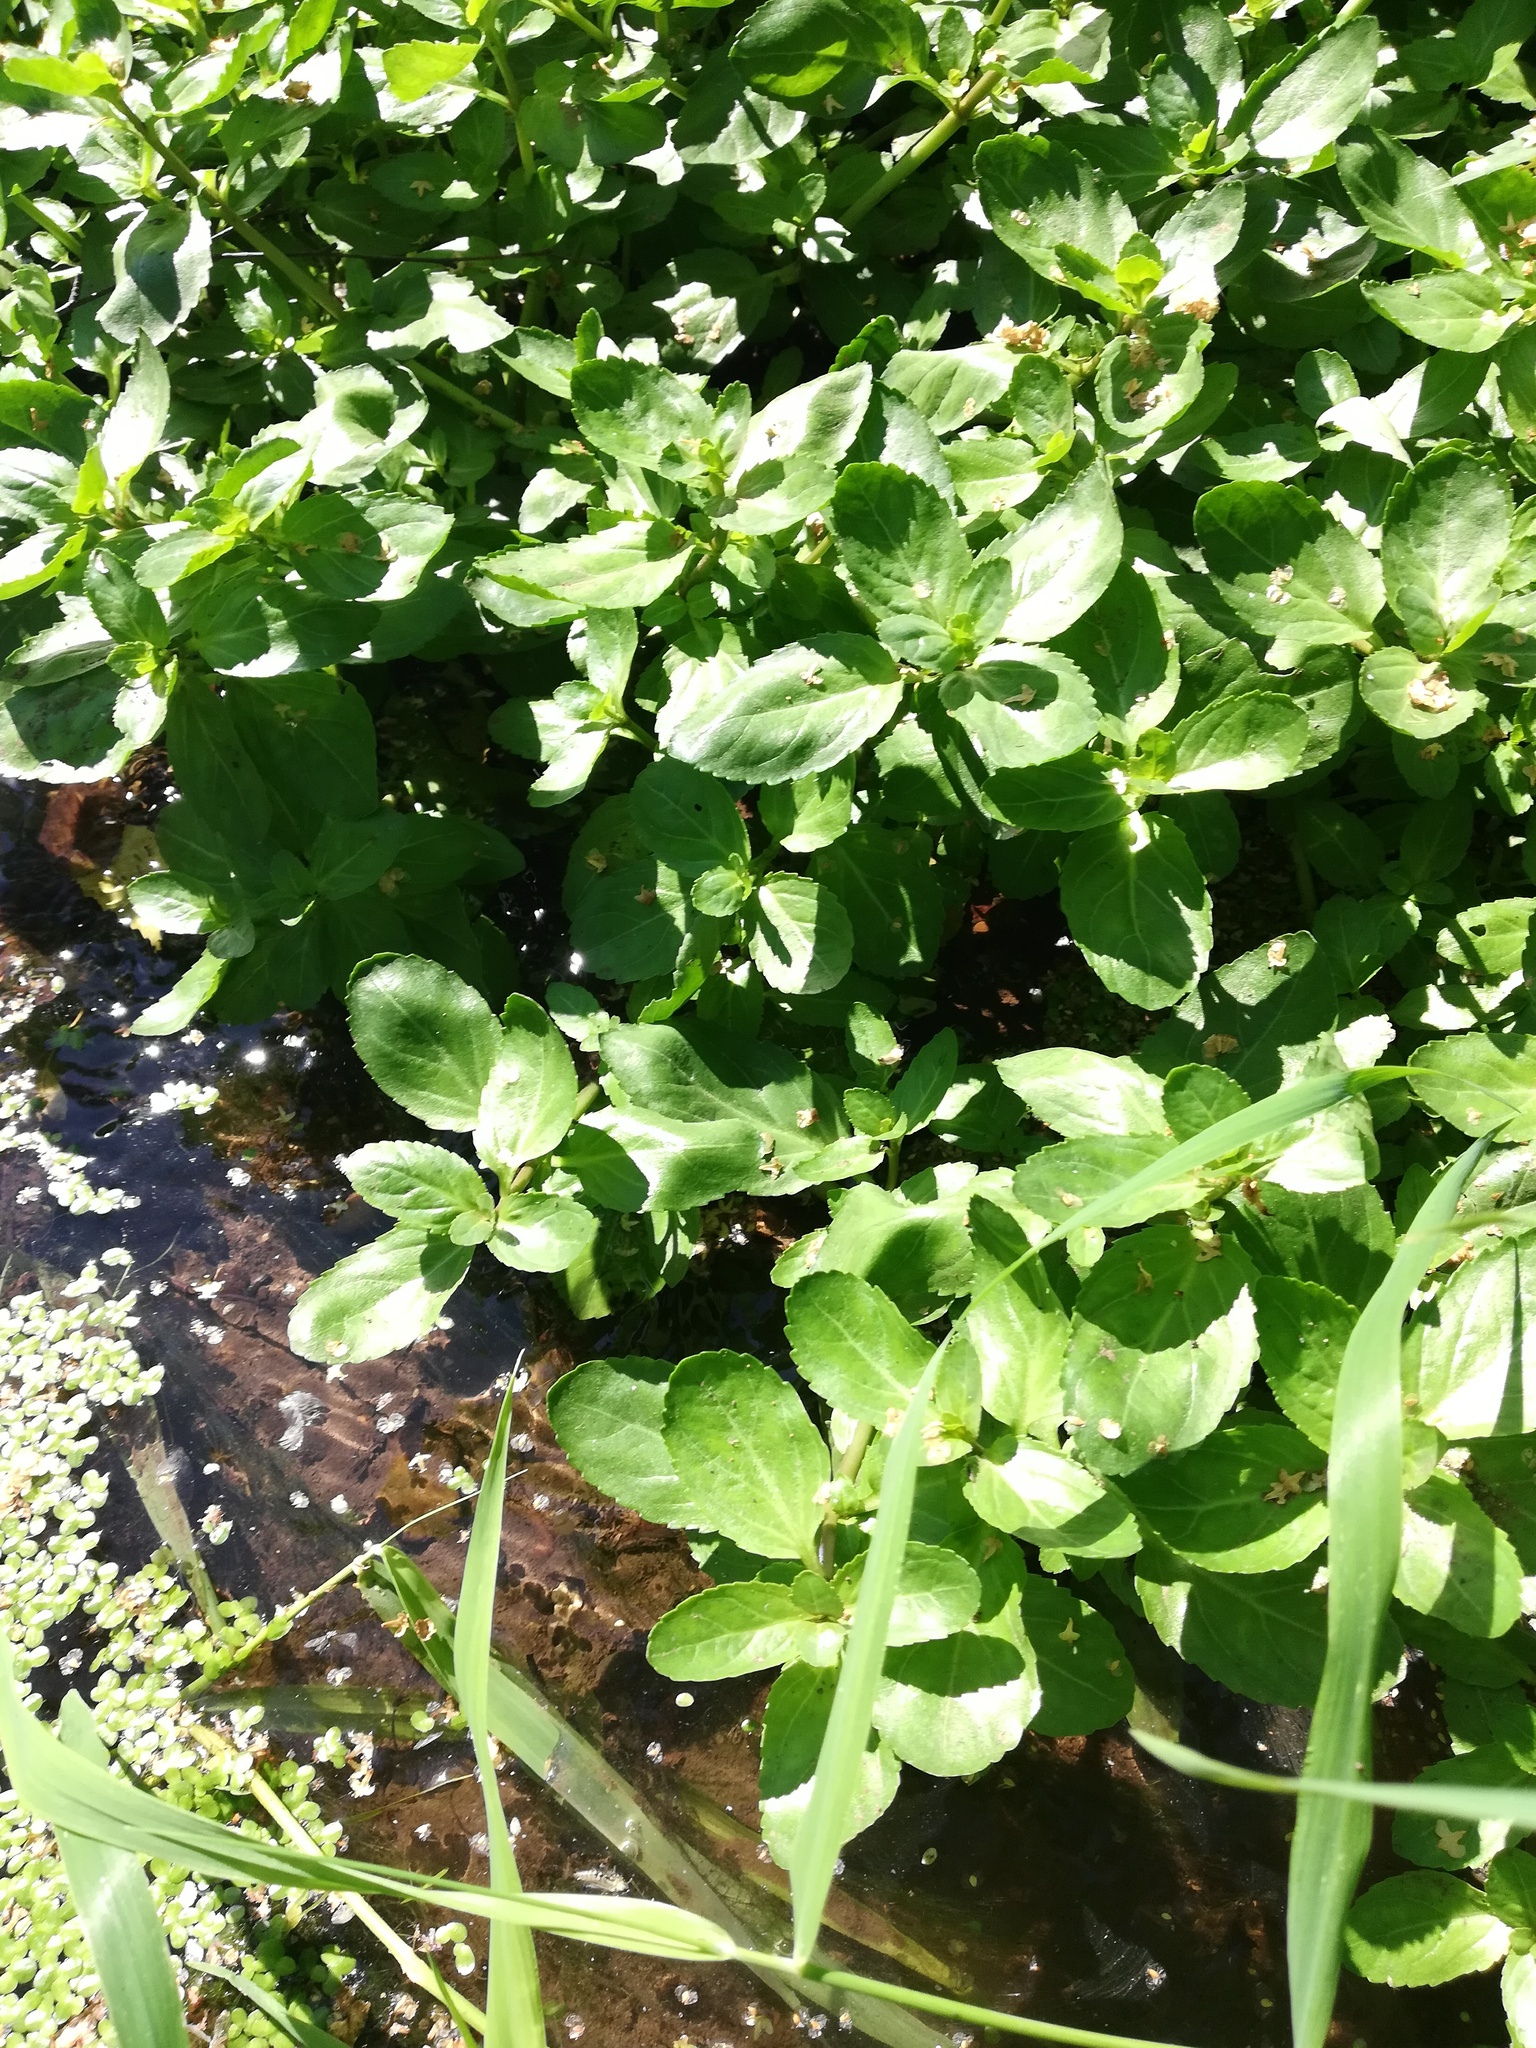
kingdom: Plantae
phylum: Tracheophyta
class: Magnoliopsida
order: Lamiales
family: Plantaginaceae
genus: Veronica
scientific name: Veronica beccabunga
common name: Brooklime
